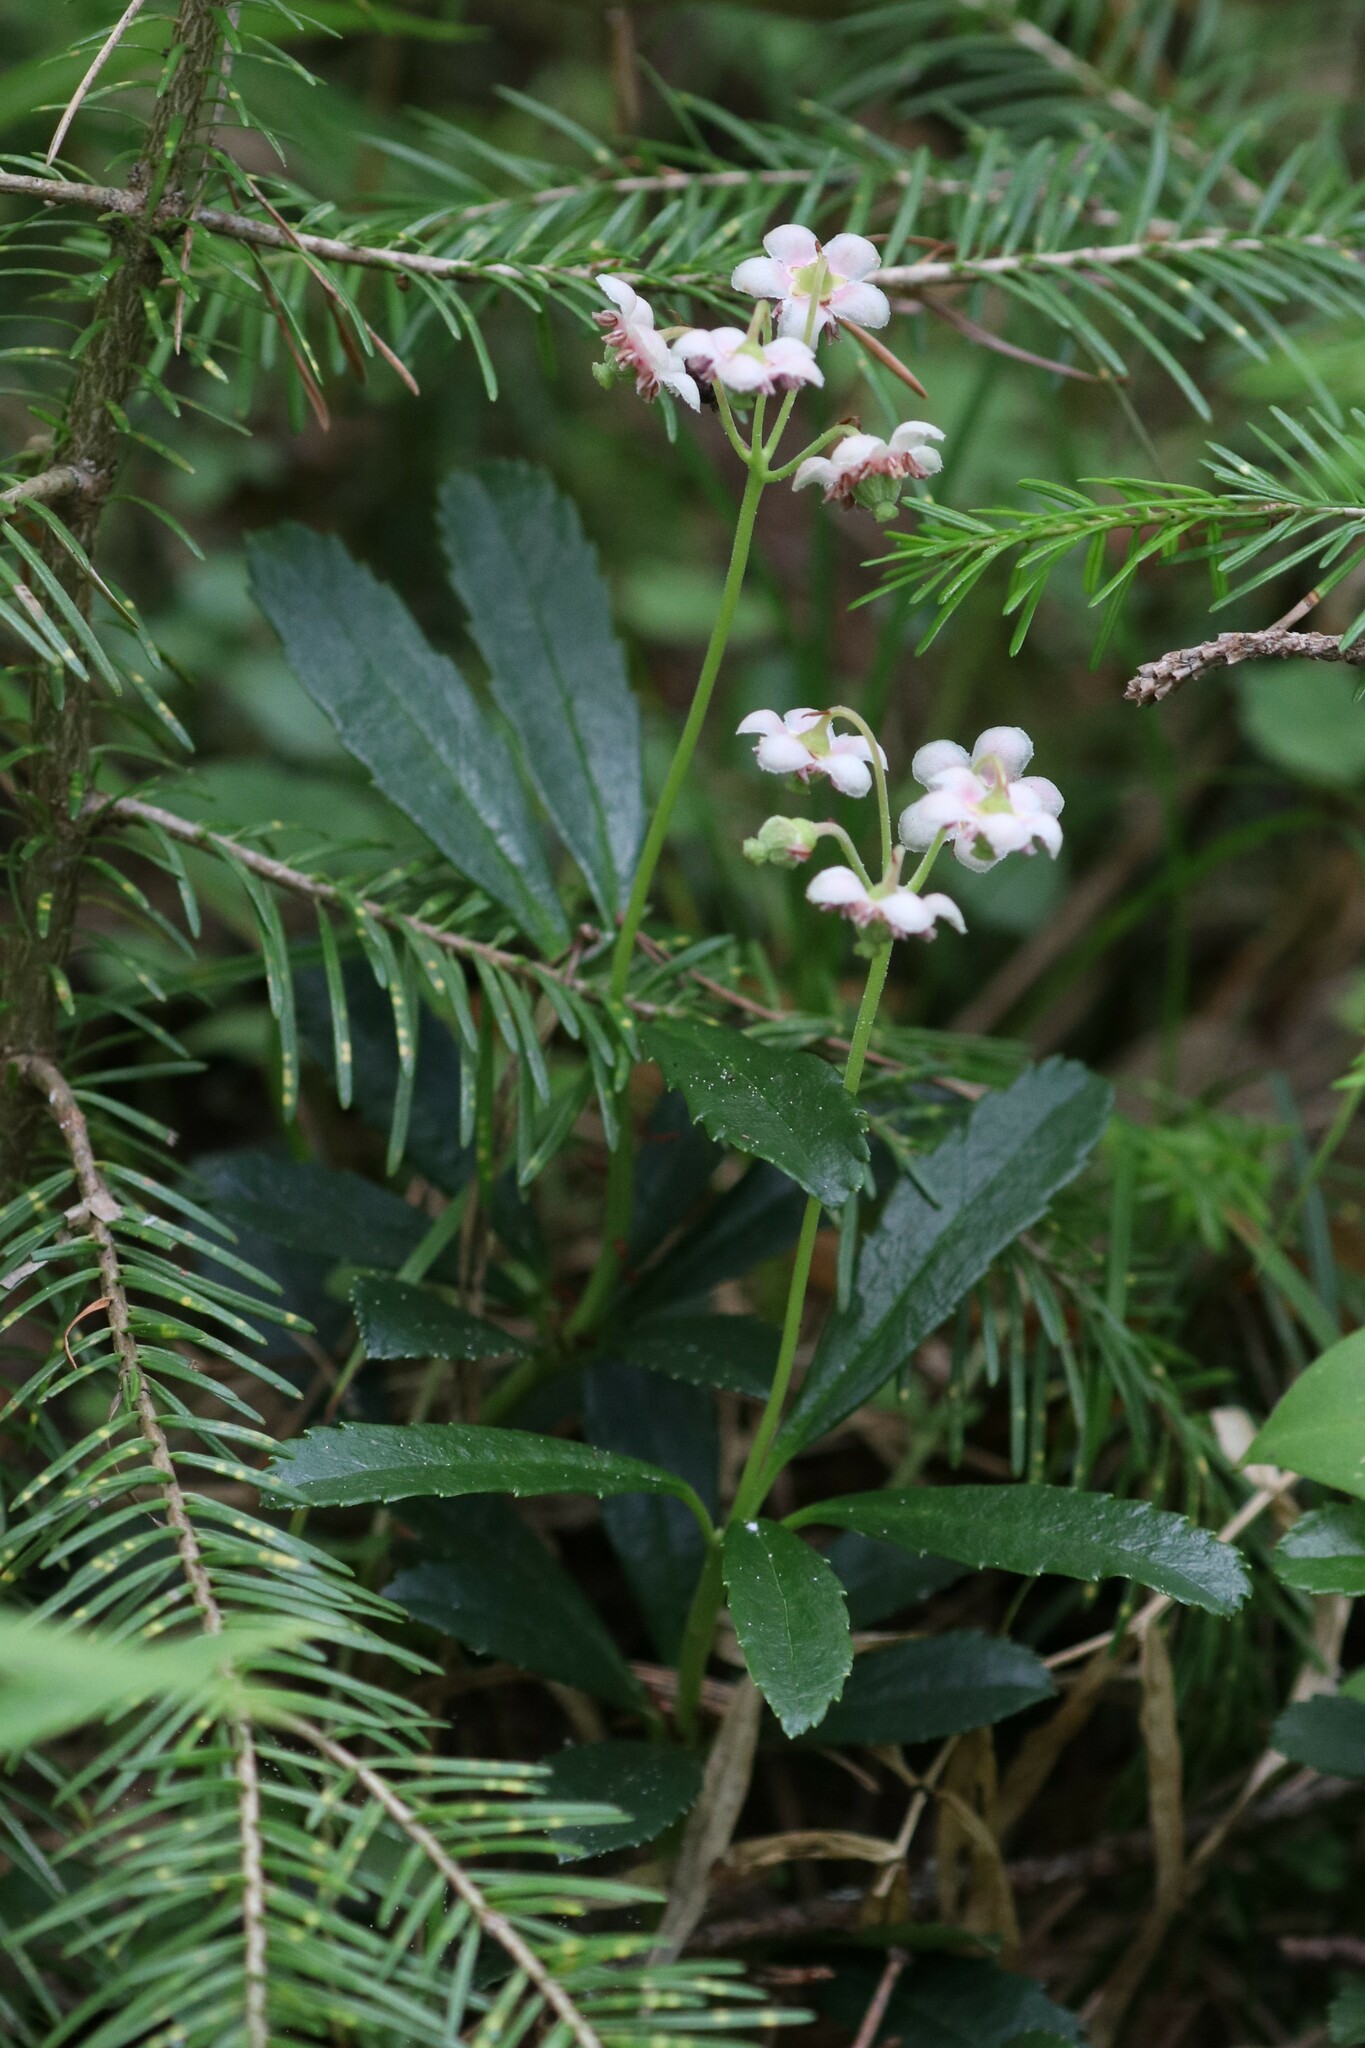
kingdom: Plantae
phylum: Tracheophyta
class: Magnoliopsida
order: Ericales
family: Ericaceae
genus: Chimaphila
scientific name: Chimaphila umbellata
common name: Pipsissewa
